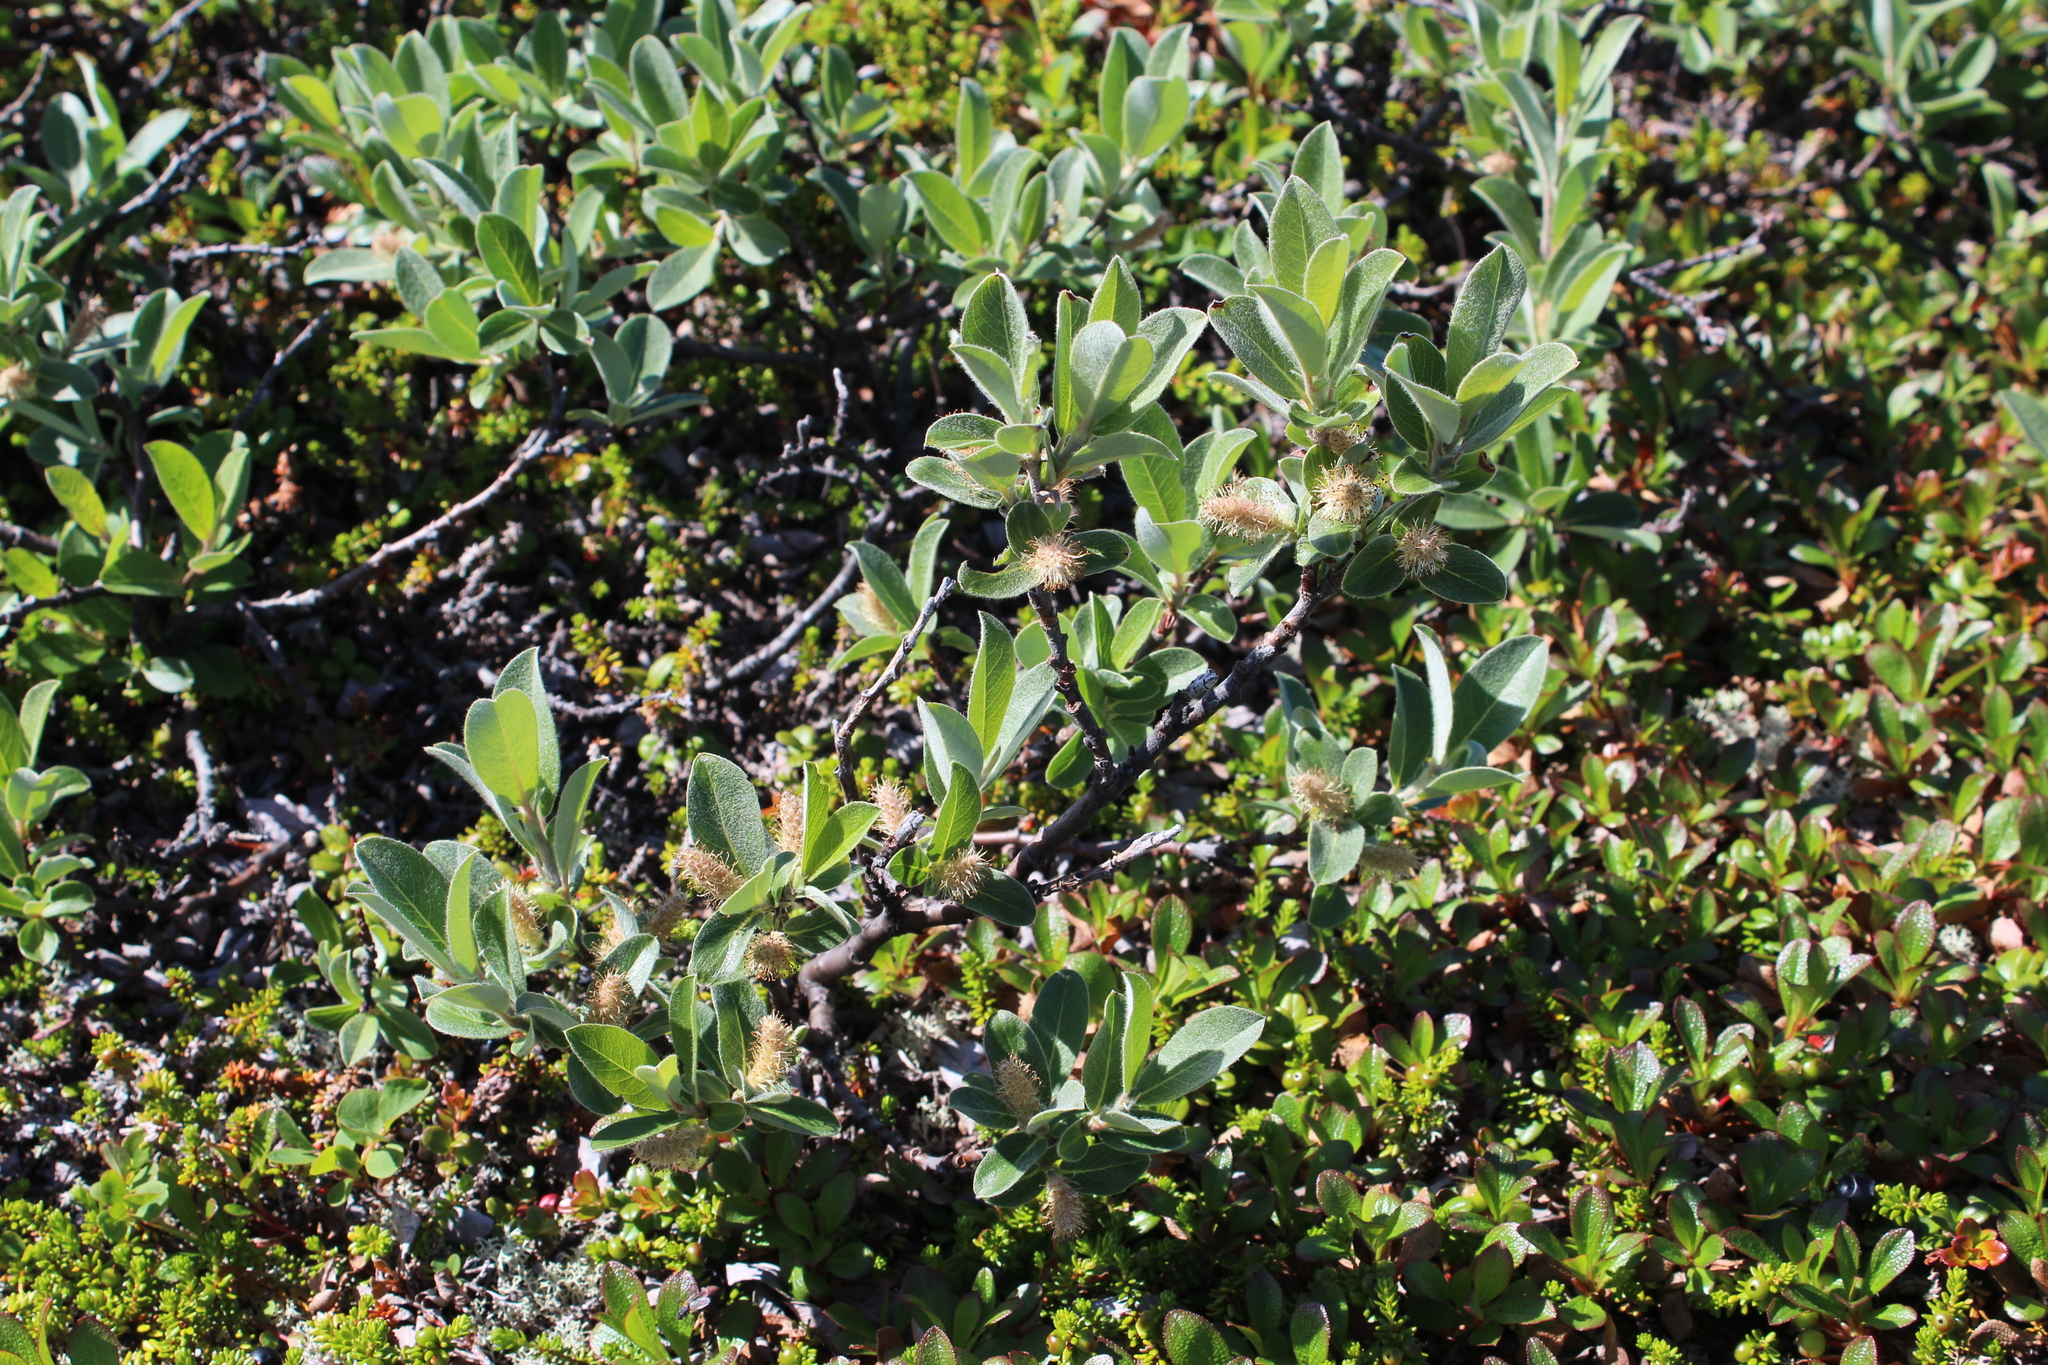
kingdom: Plantae
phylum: Tracheophyta
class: Magnoliopsida
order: Malpighiales
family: Salicaceae
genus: Salix
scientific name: Salix glauca
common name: Glaucous willow
